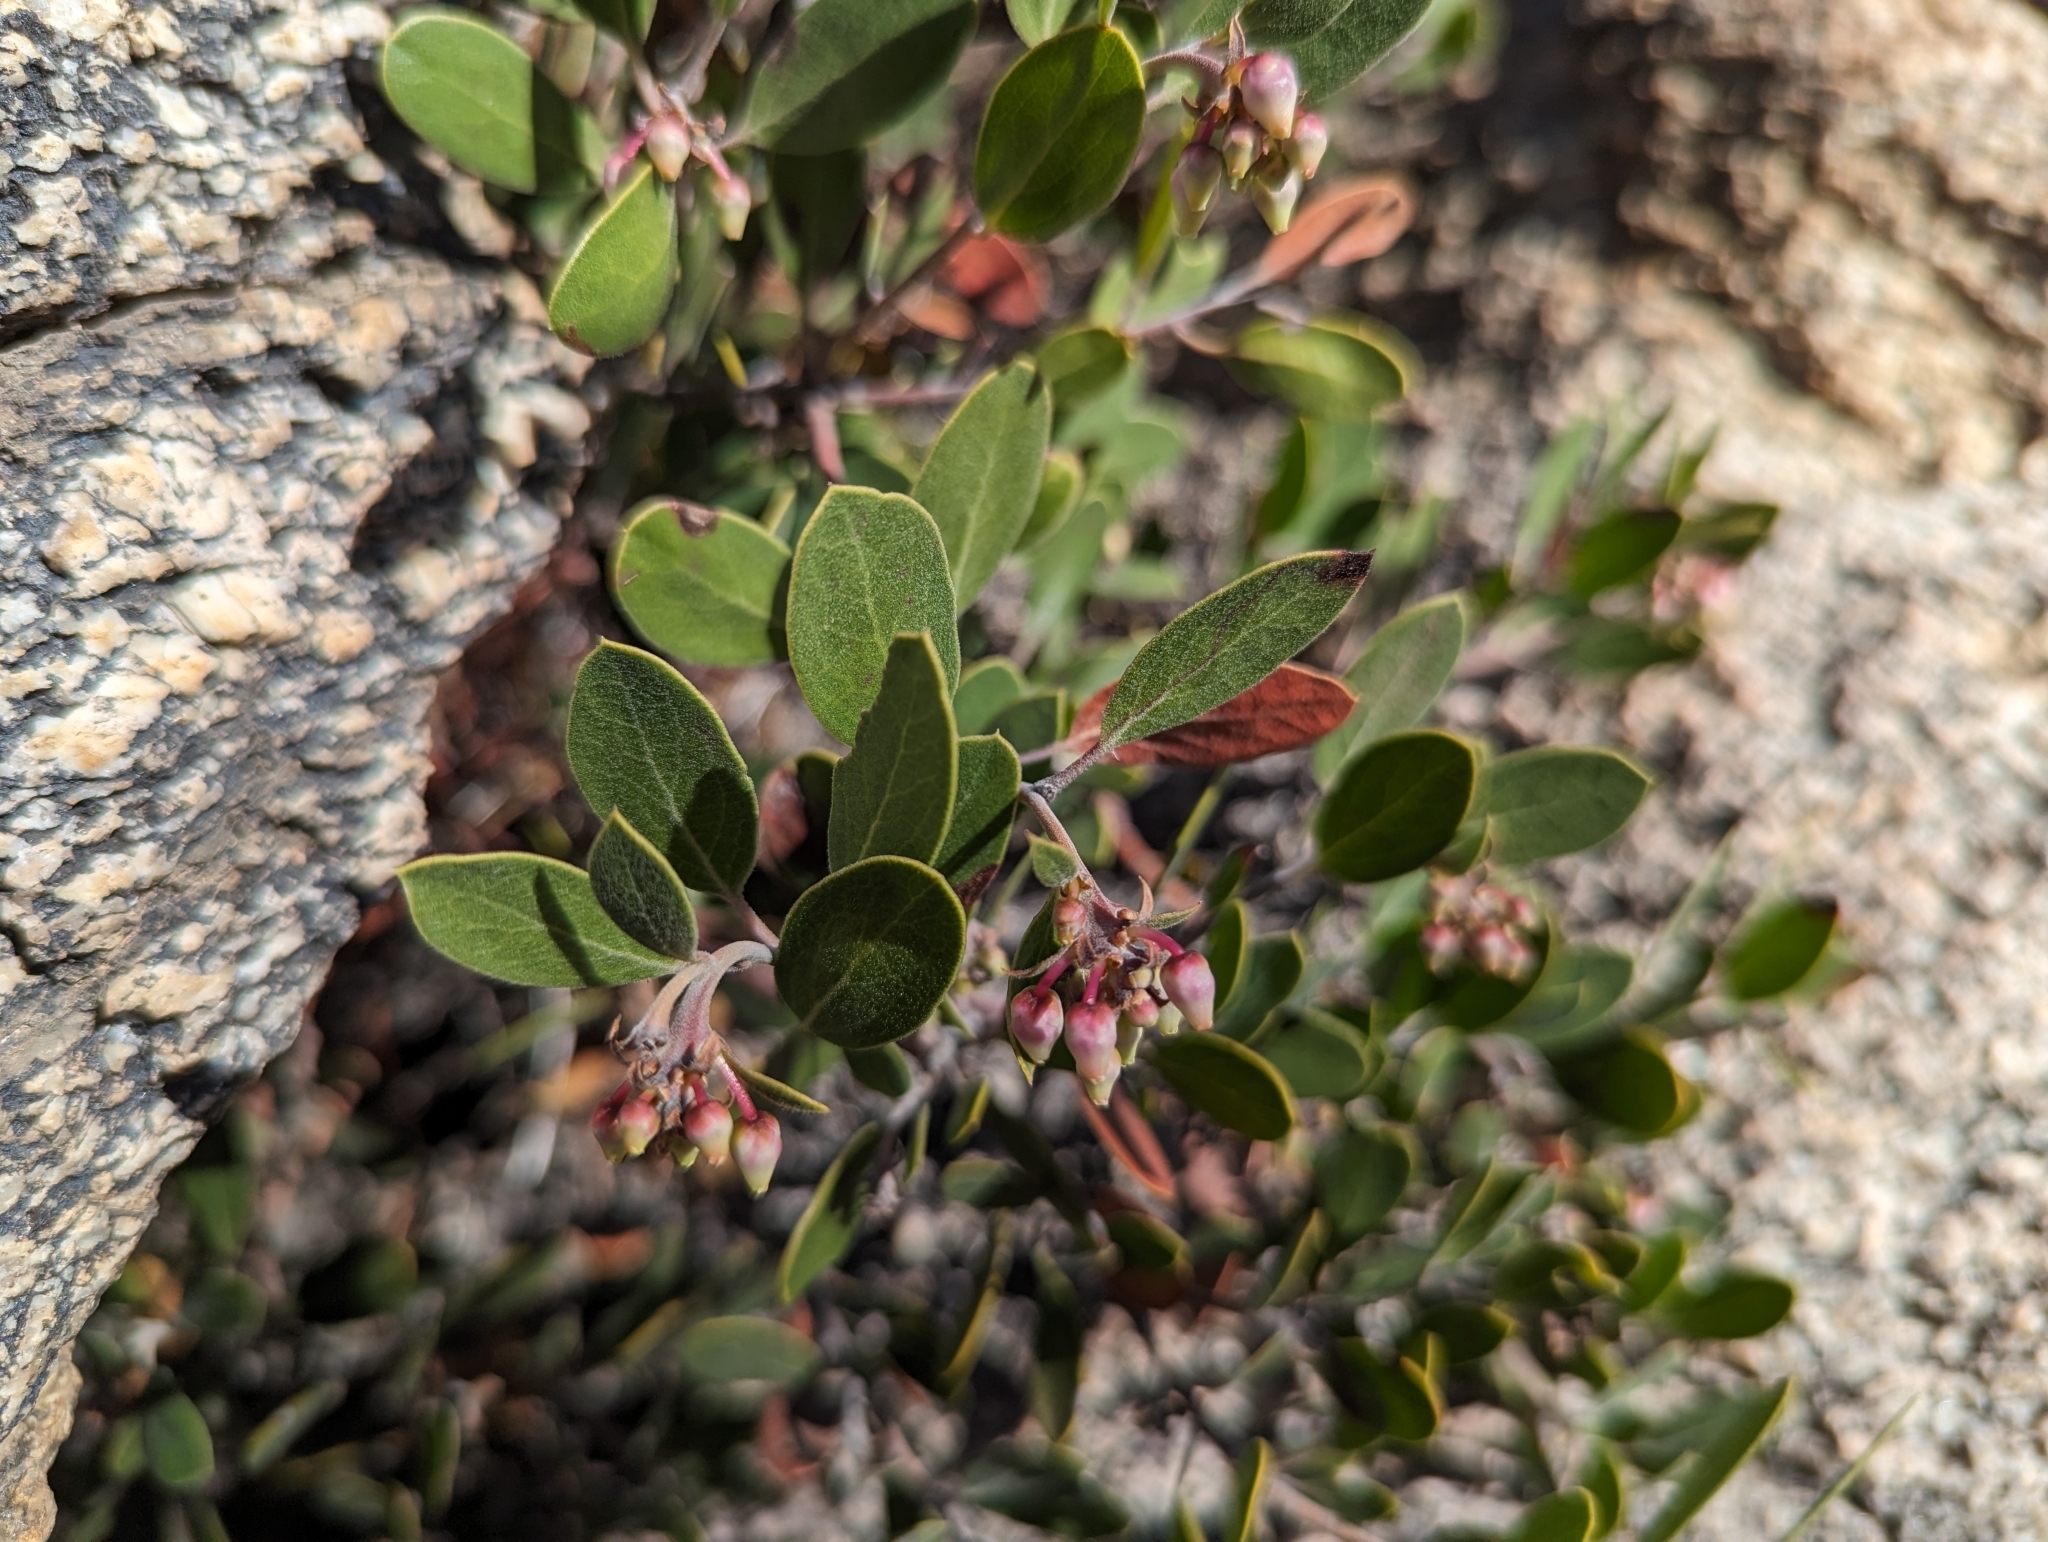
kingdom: Plantae
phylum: Tracheophyta
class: Magnoliopsida
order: Ericales
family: Ericaceae
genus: Arctostaphylos
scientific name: Arctostaphylos pungens
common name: Mexican manzanita
